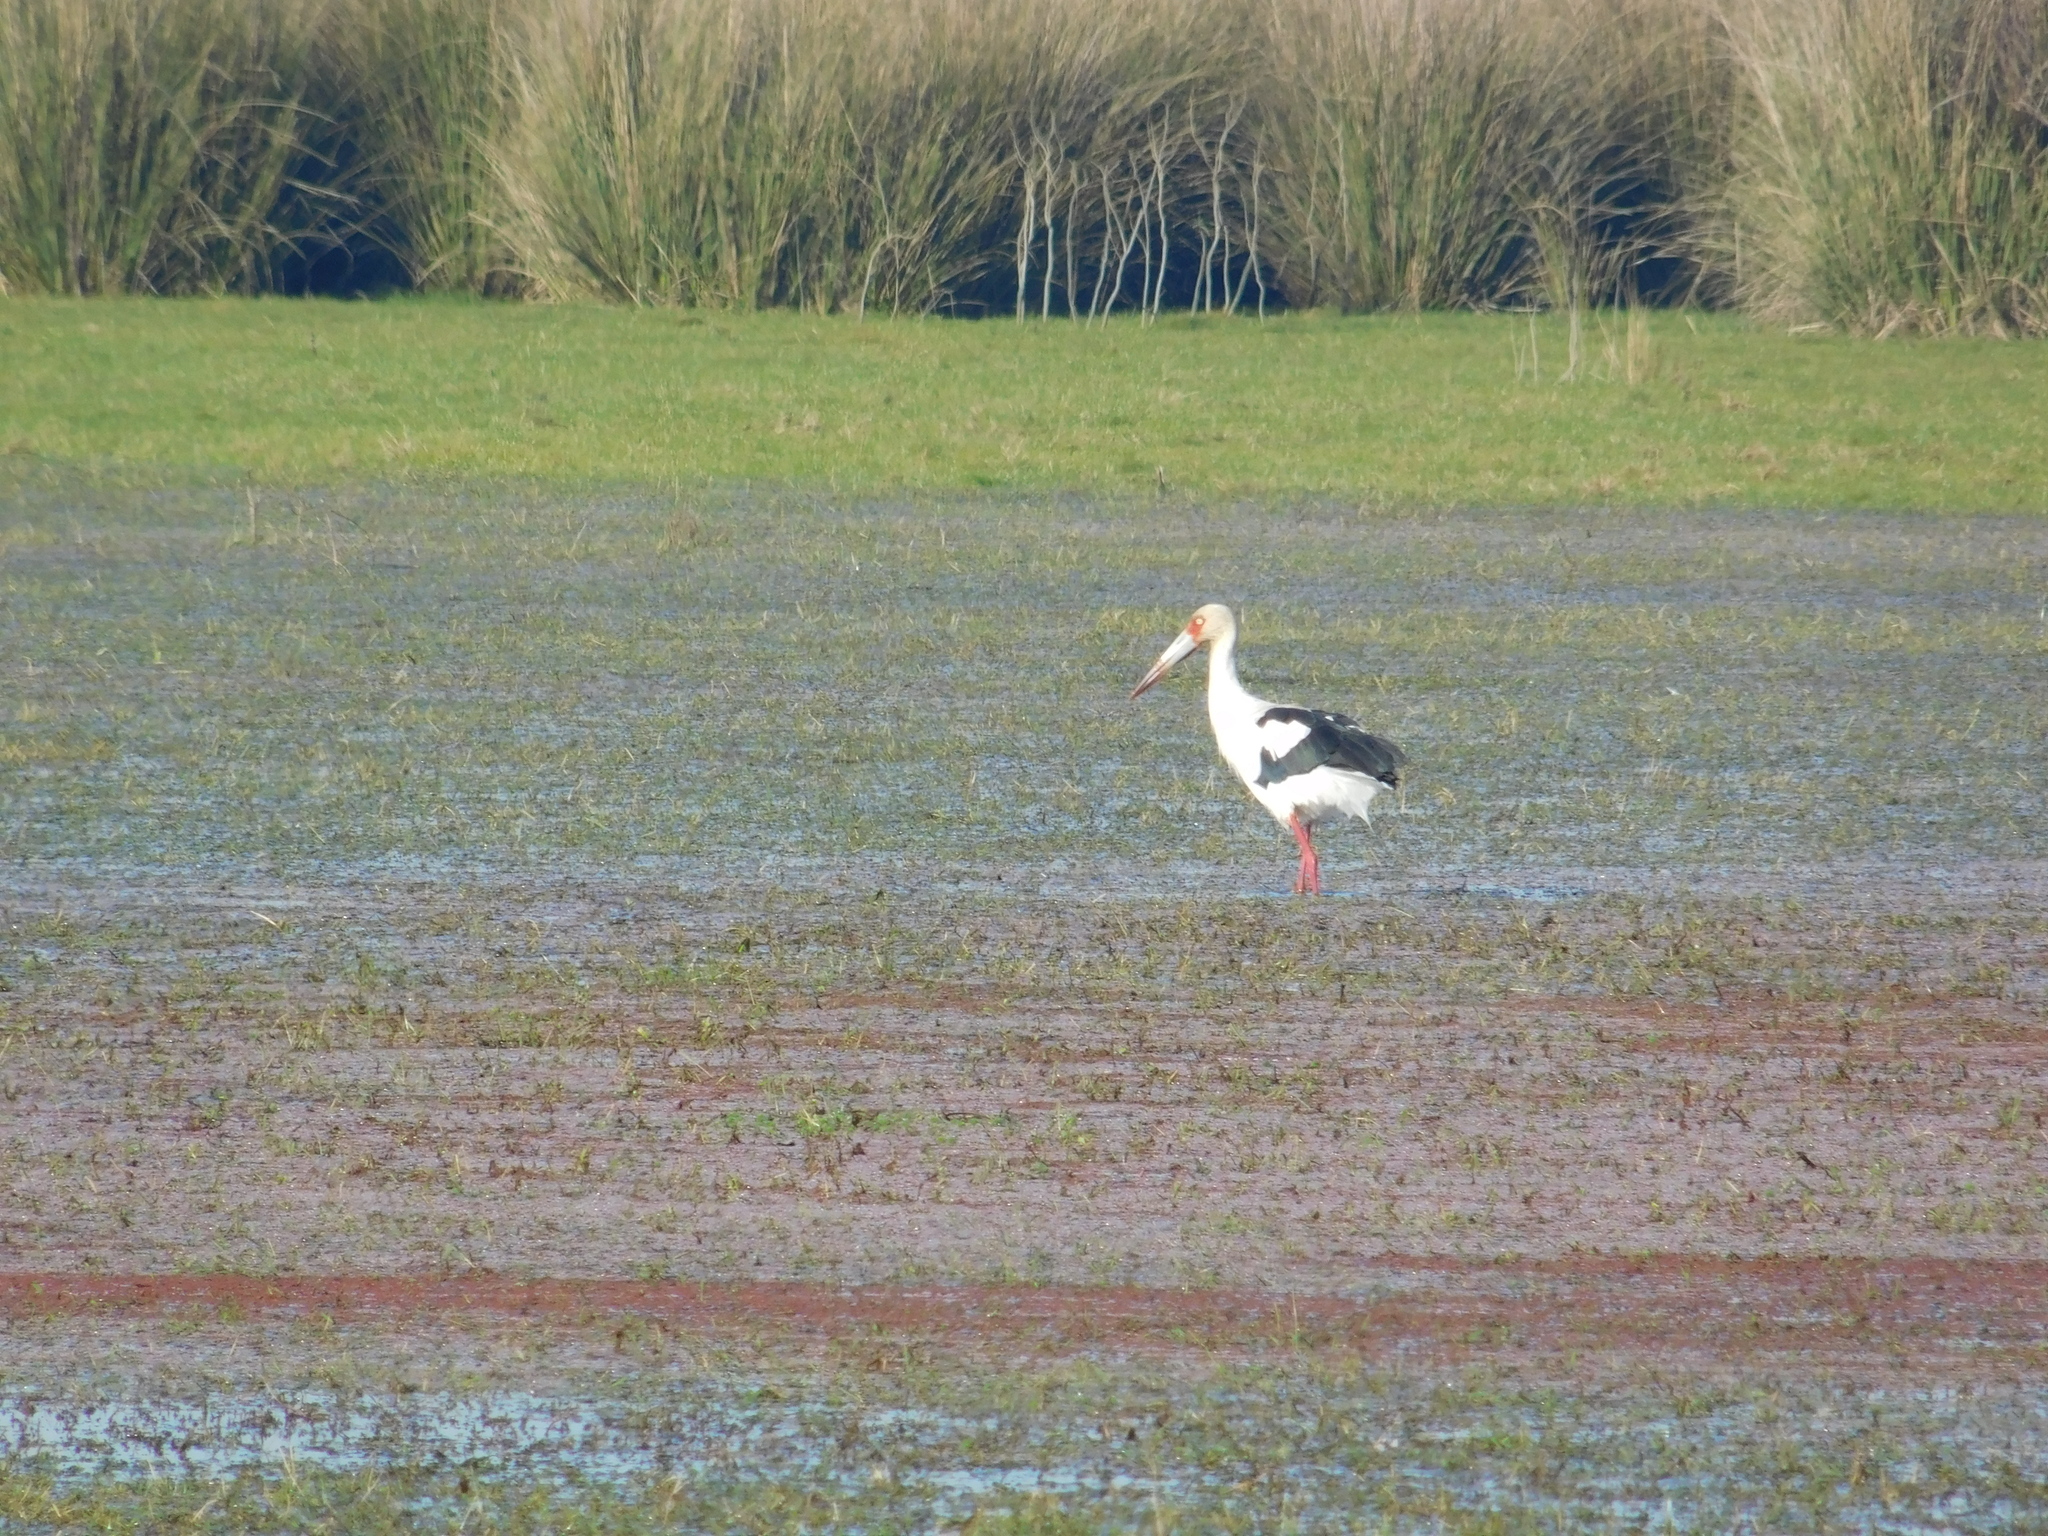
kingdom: Animalia
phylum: Chordata
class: Aves
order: Ciconiiformes
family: Ciconiidae
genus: Ciconia
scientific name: Ciconia maguari
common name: Maguari stork
